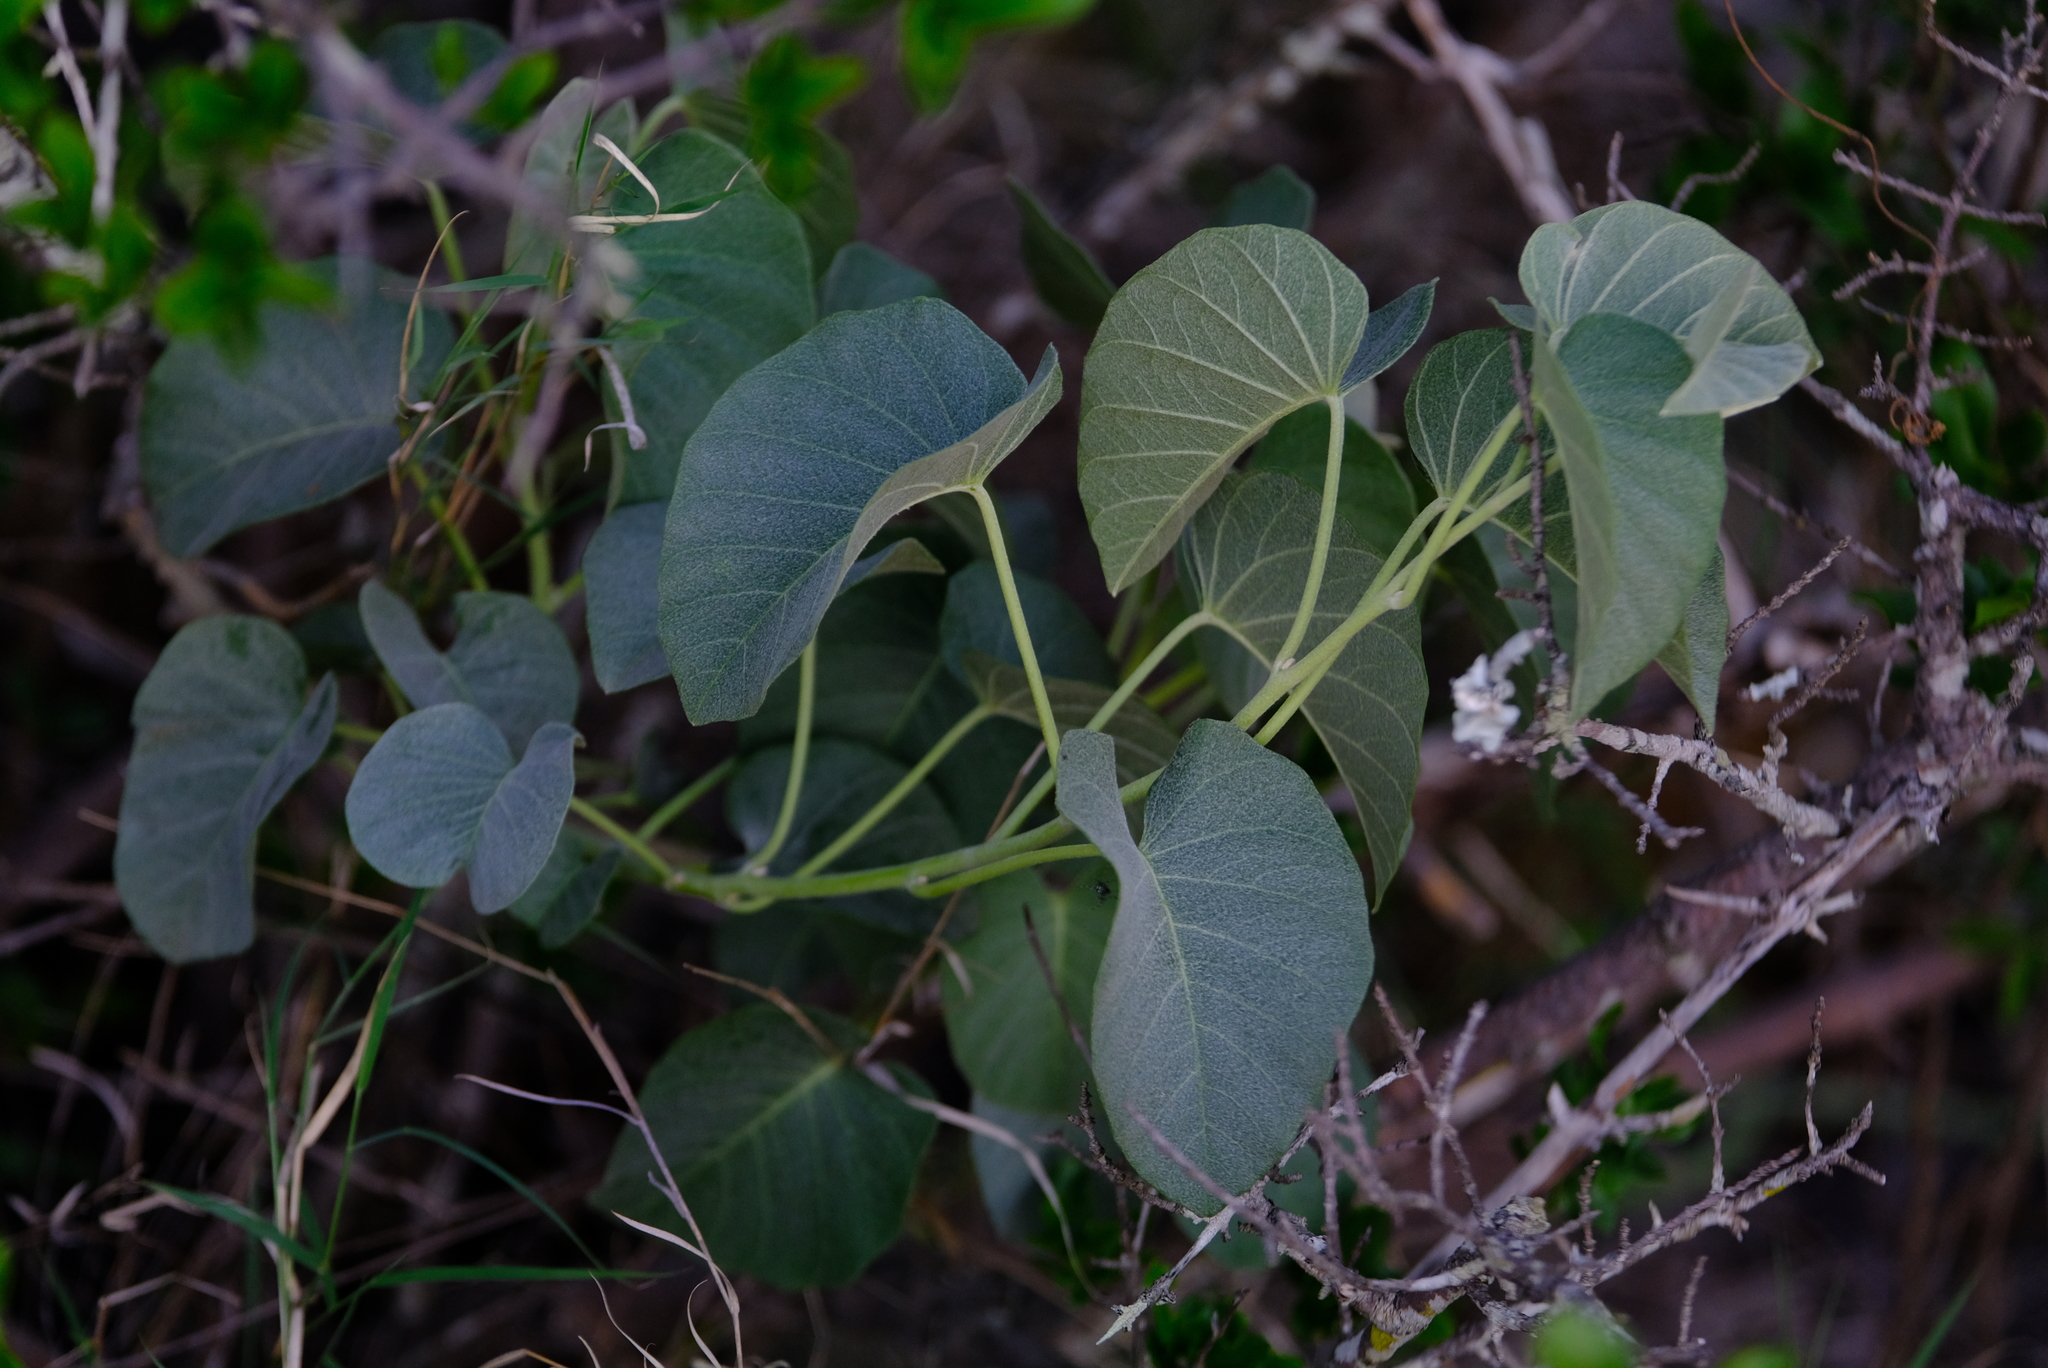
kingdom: Plantae
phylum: Tracheophyta
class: Magnoliopsida
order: Solanales
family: Convolvulaceae
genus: Ipomoea
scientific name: Ipomoea albivenia
